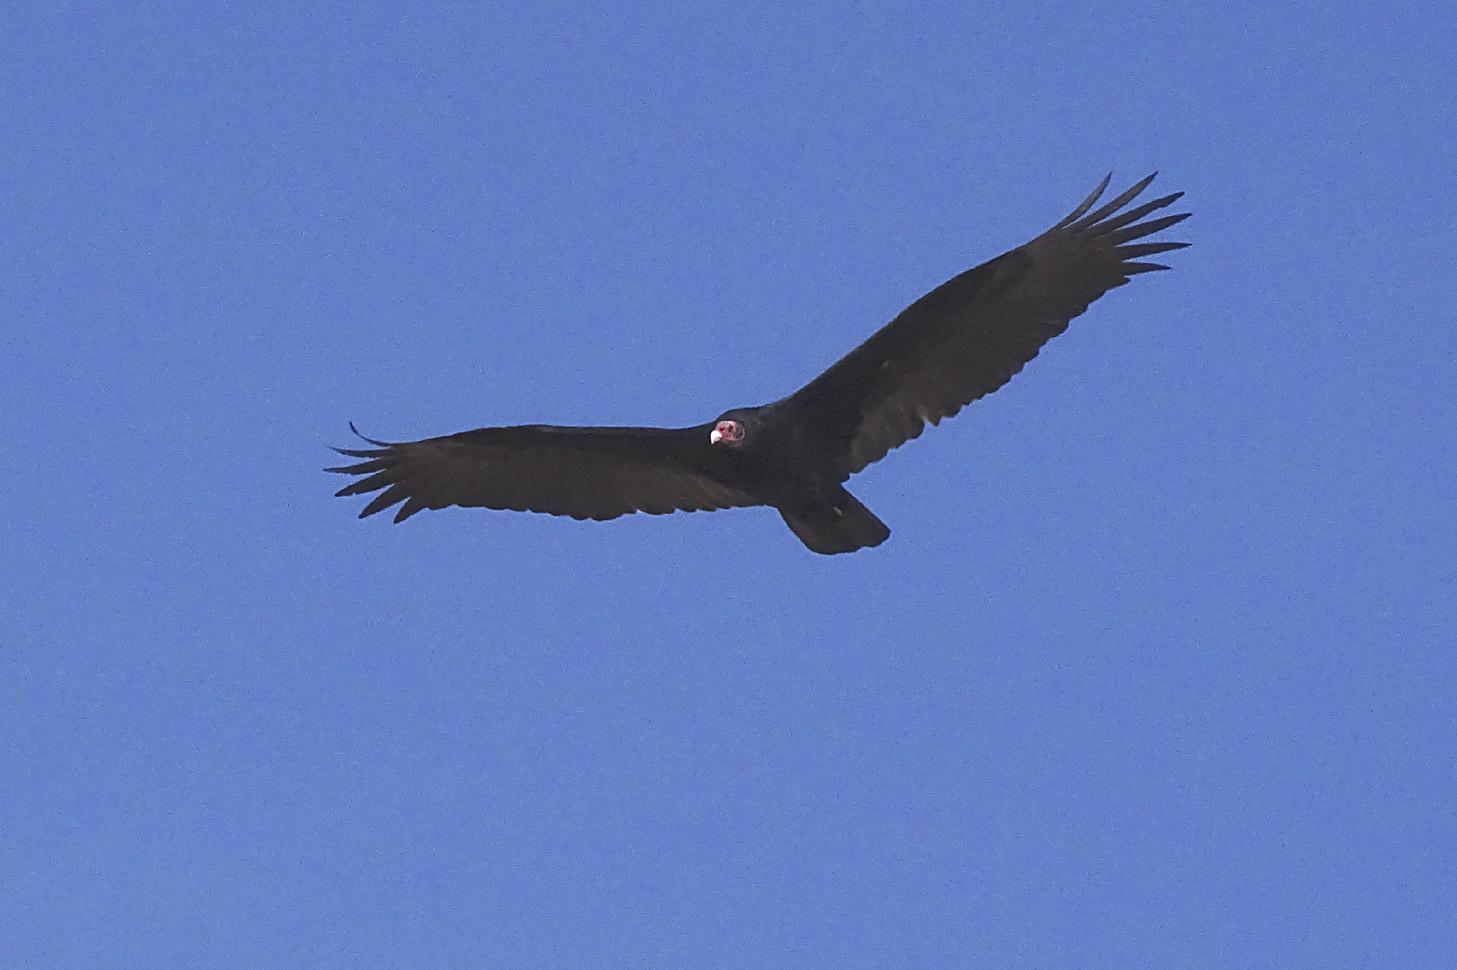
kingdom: Animalia
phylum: Chordata
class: Aves
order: Accipitriformes
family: Cathartidae
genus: Cathartes
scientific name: Cathartes aura
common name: Turkey vulture
